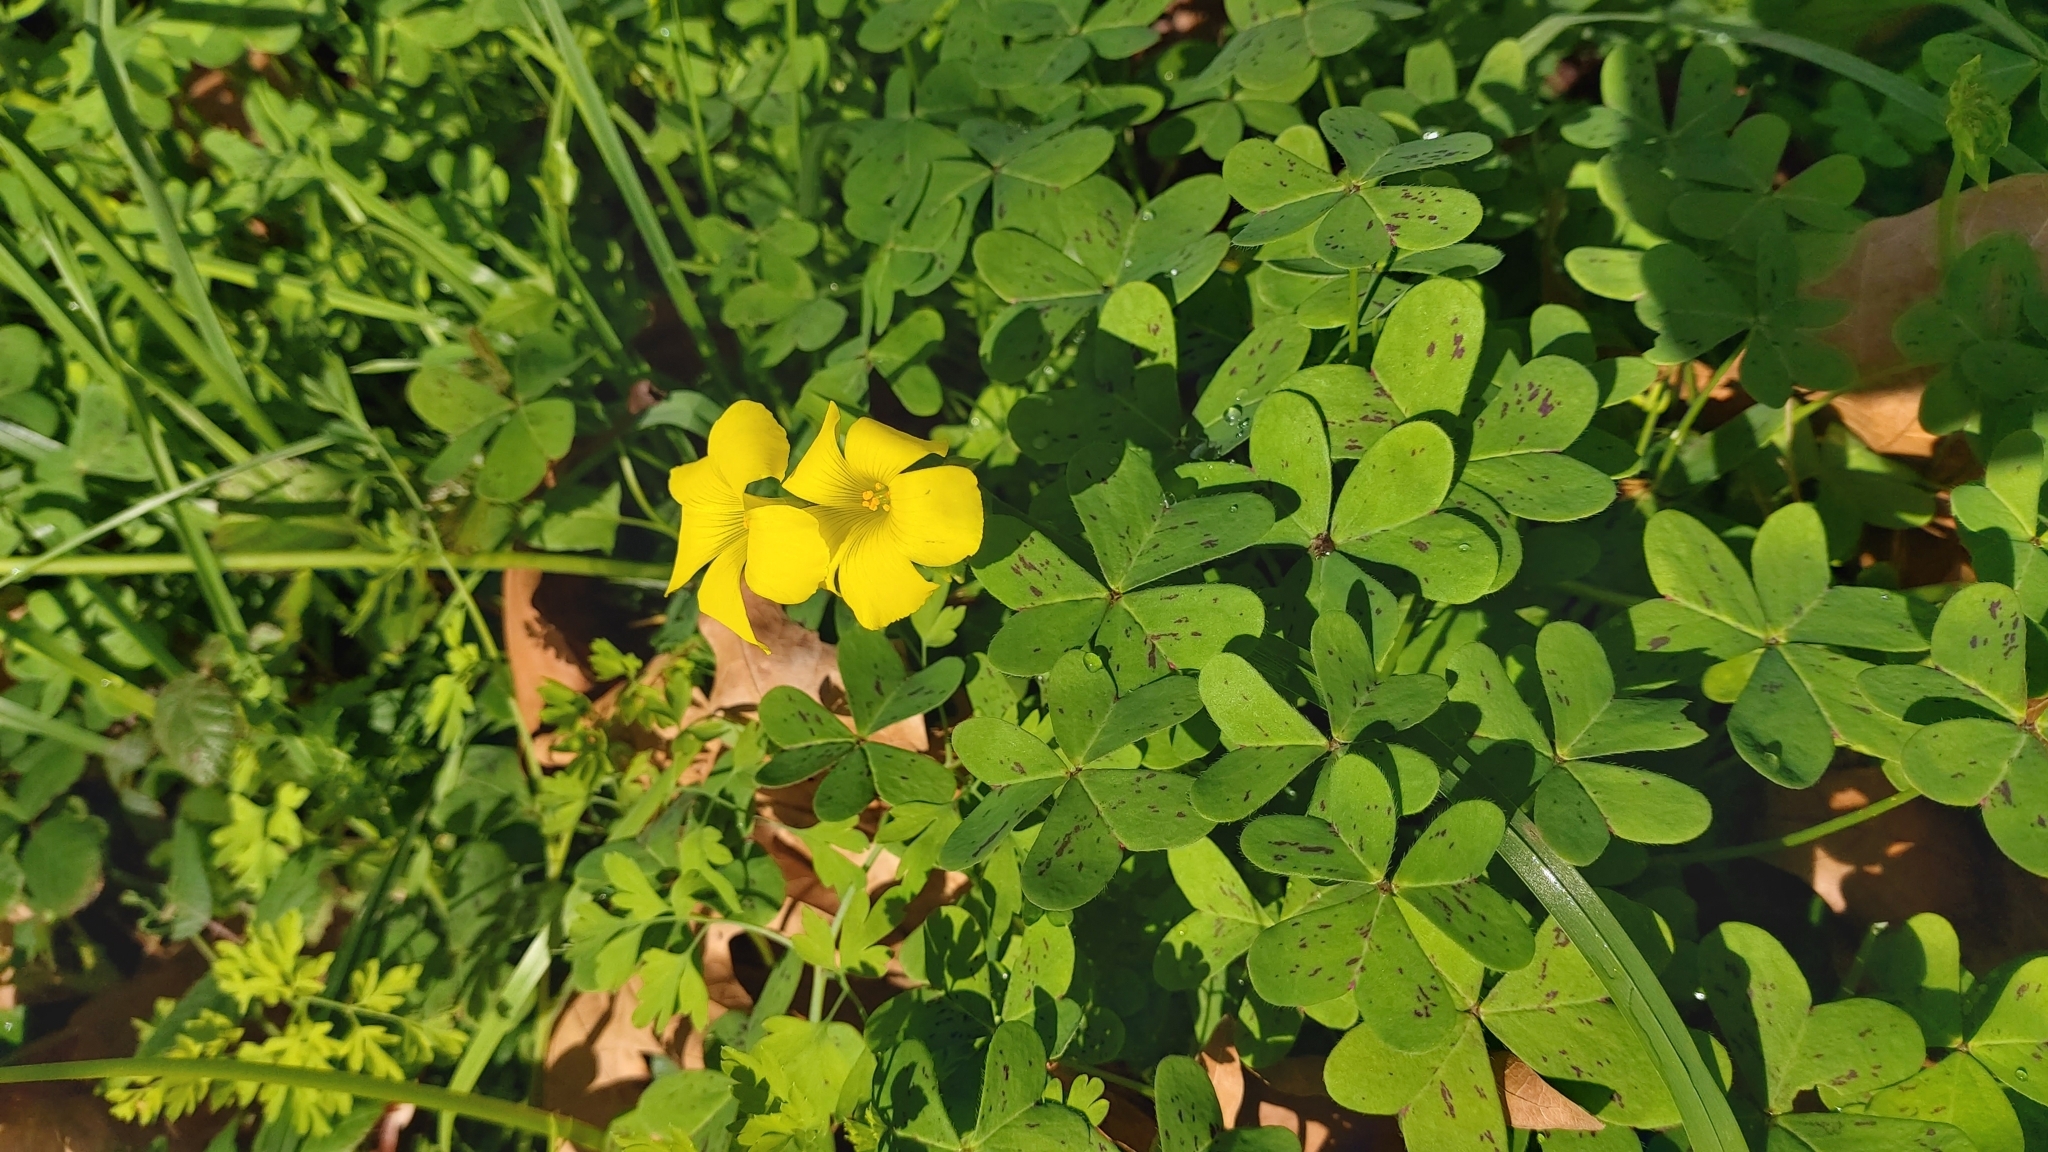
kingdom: Plantae
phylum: Tracheophyta
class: Magnoliopsida
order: Oxalidales
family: Oxalidaceae
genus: Oxalis
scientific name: Oxalis pes-caprae
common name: Bermuda-buttercup
